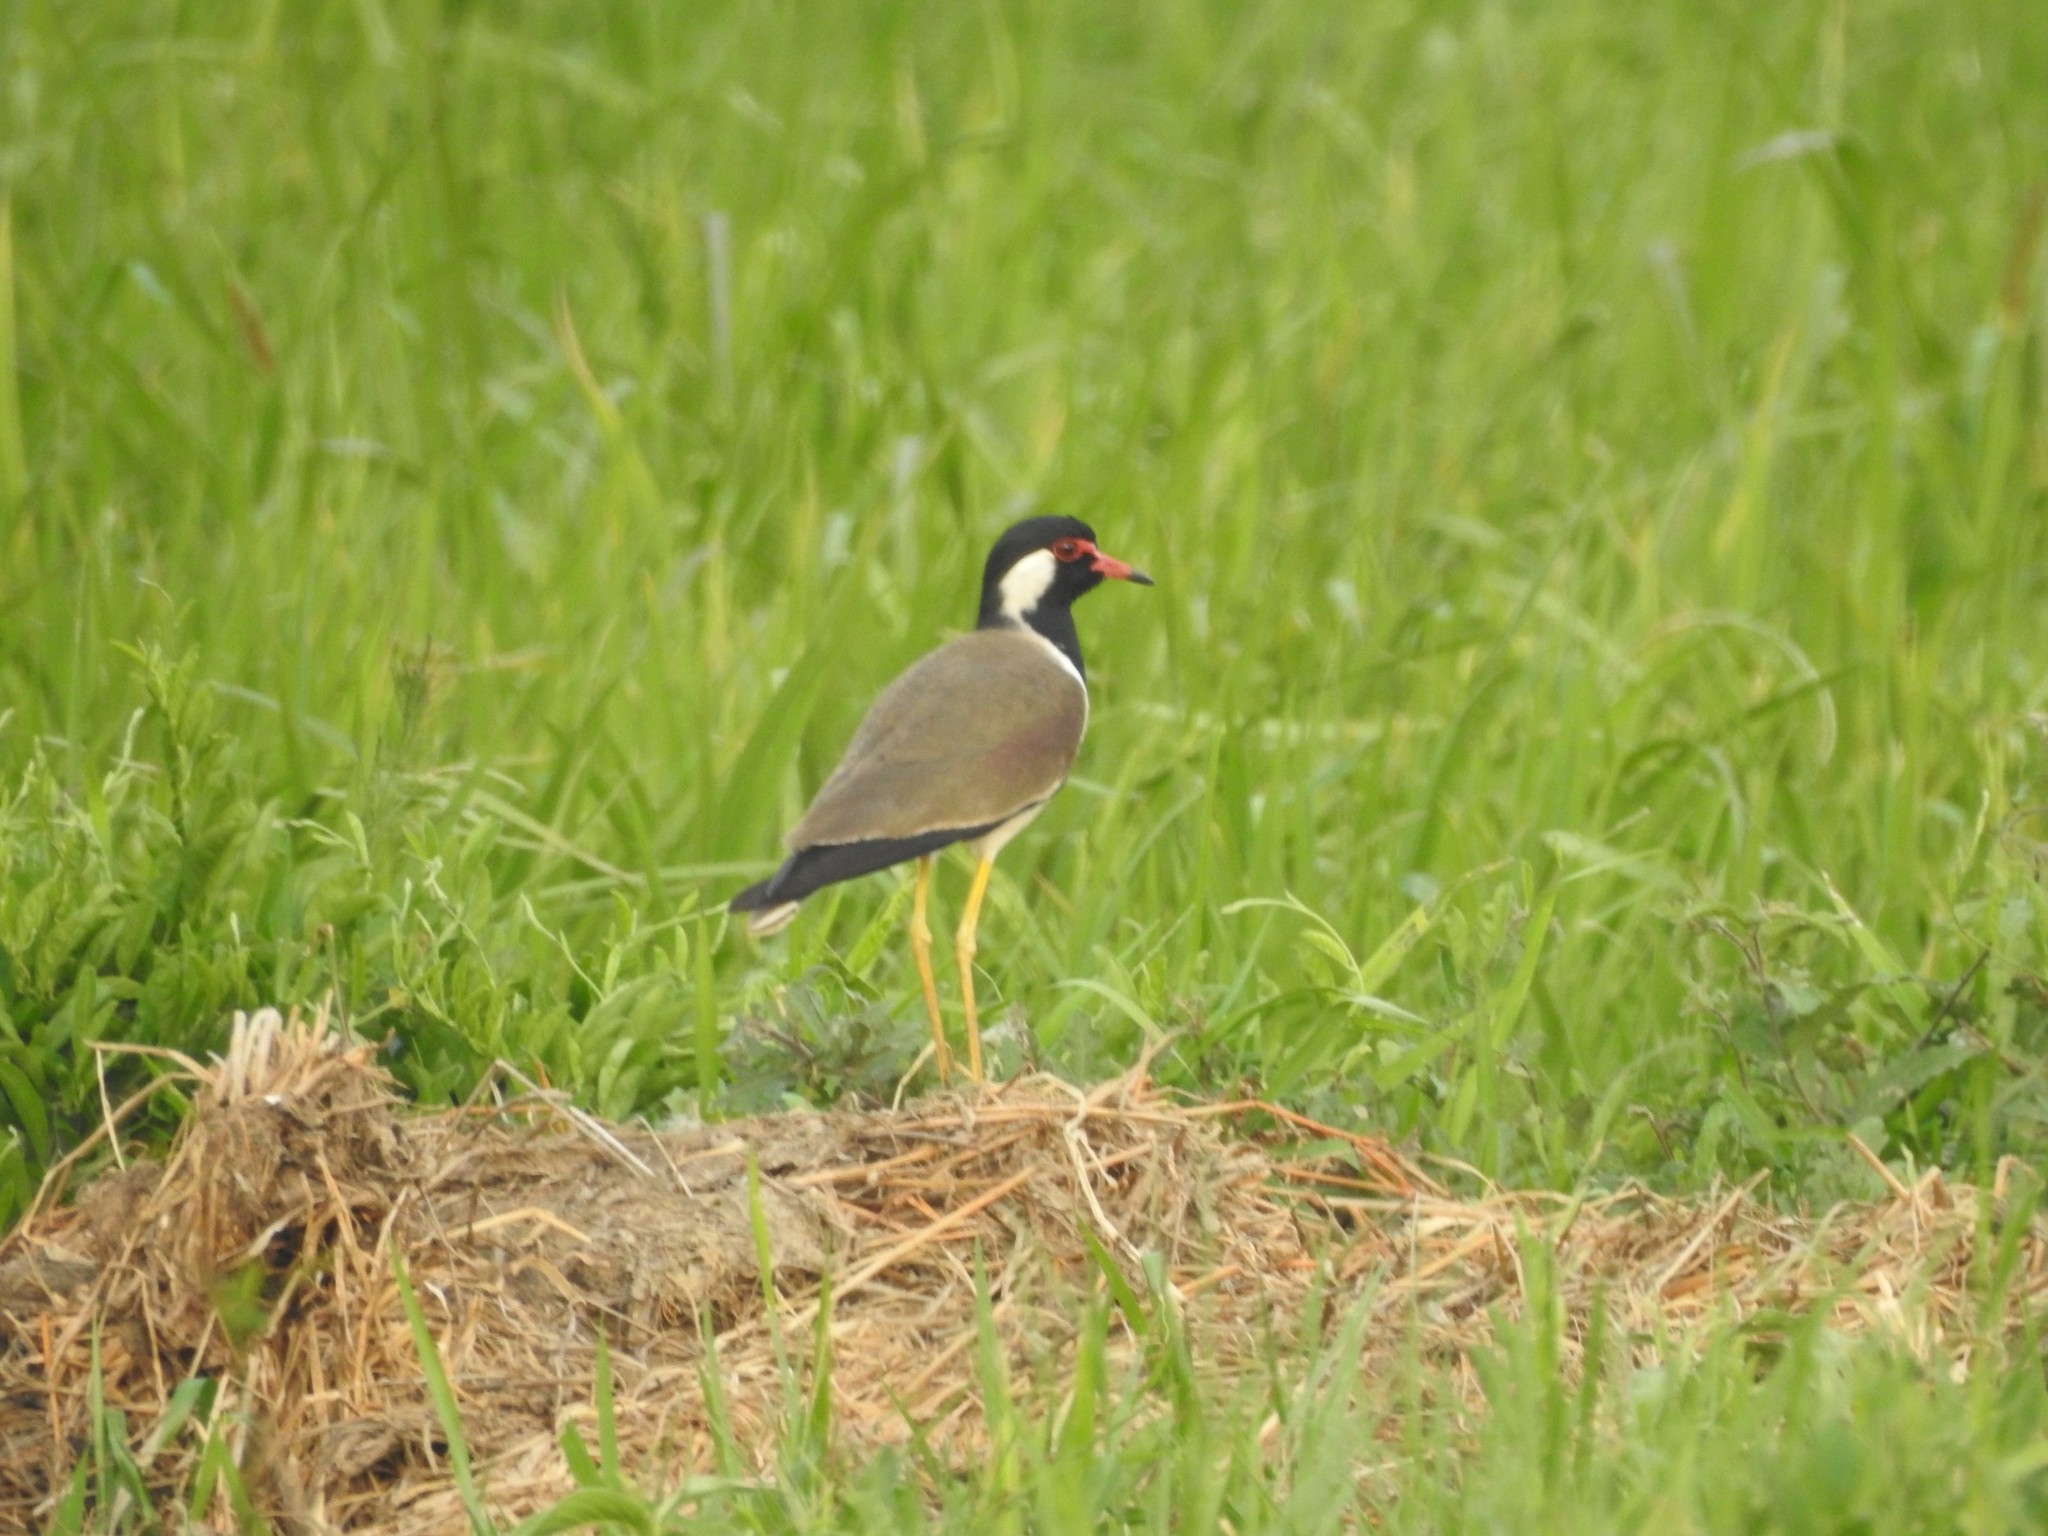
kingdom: Animalia
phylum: Chordata
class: Aves
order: Charadriiformes
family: Charadriidae
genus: Vanellus
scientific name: Vanellus indicus
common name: Red-wattled lapwing
